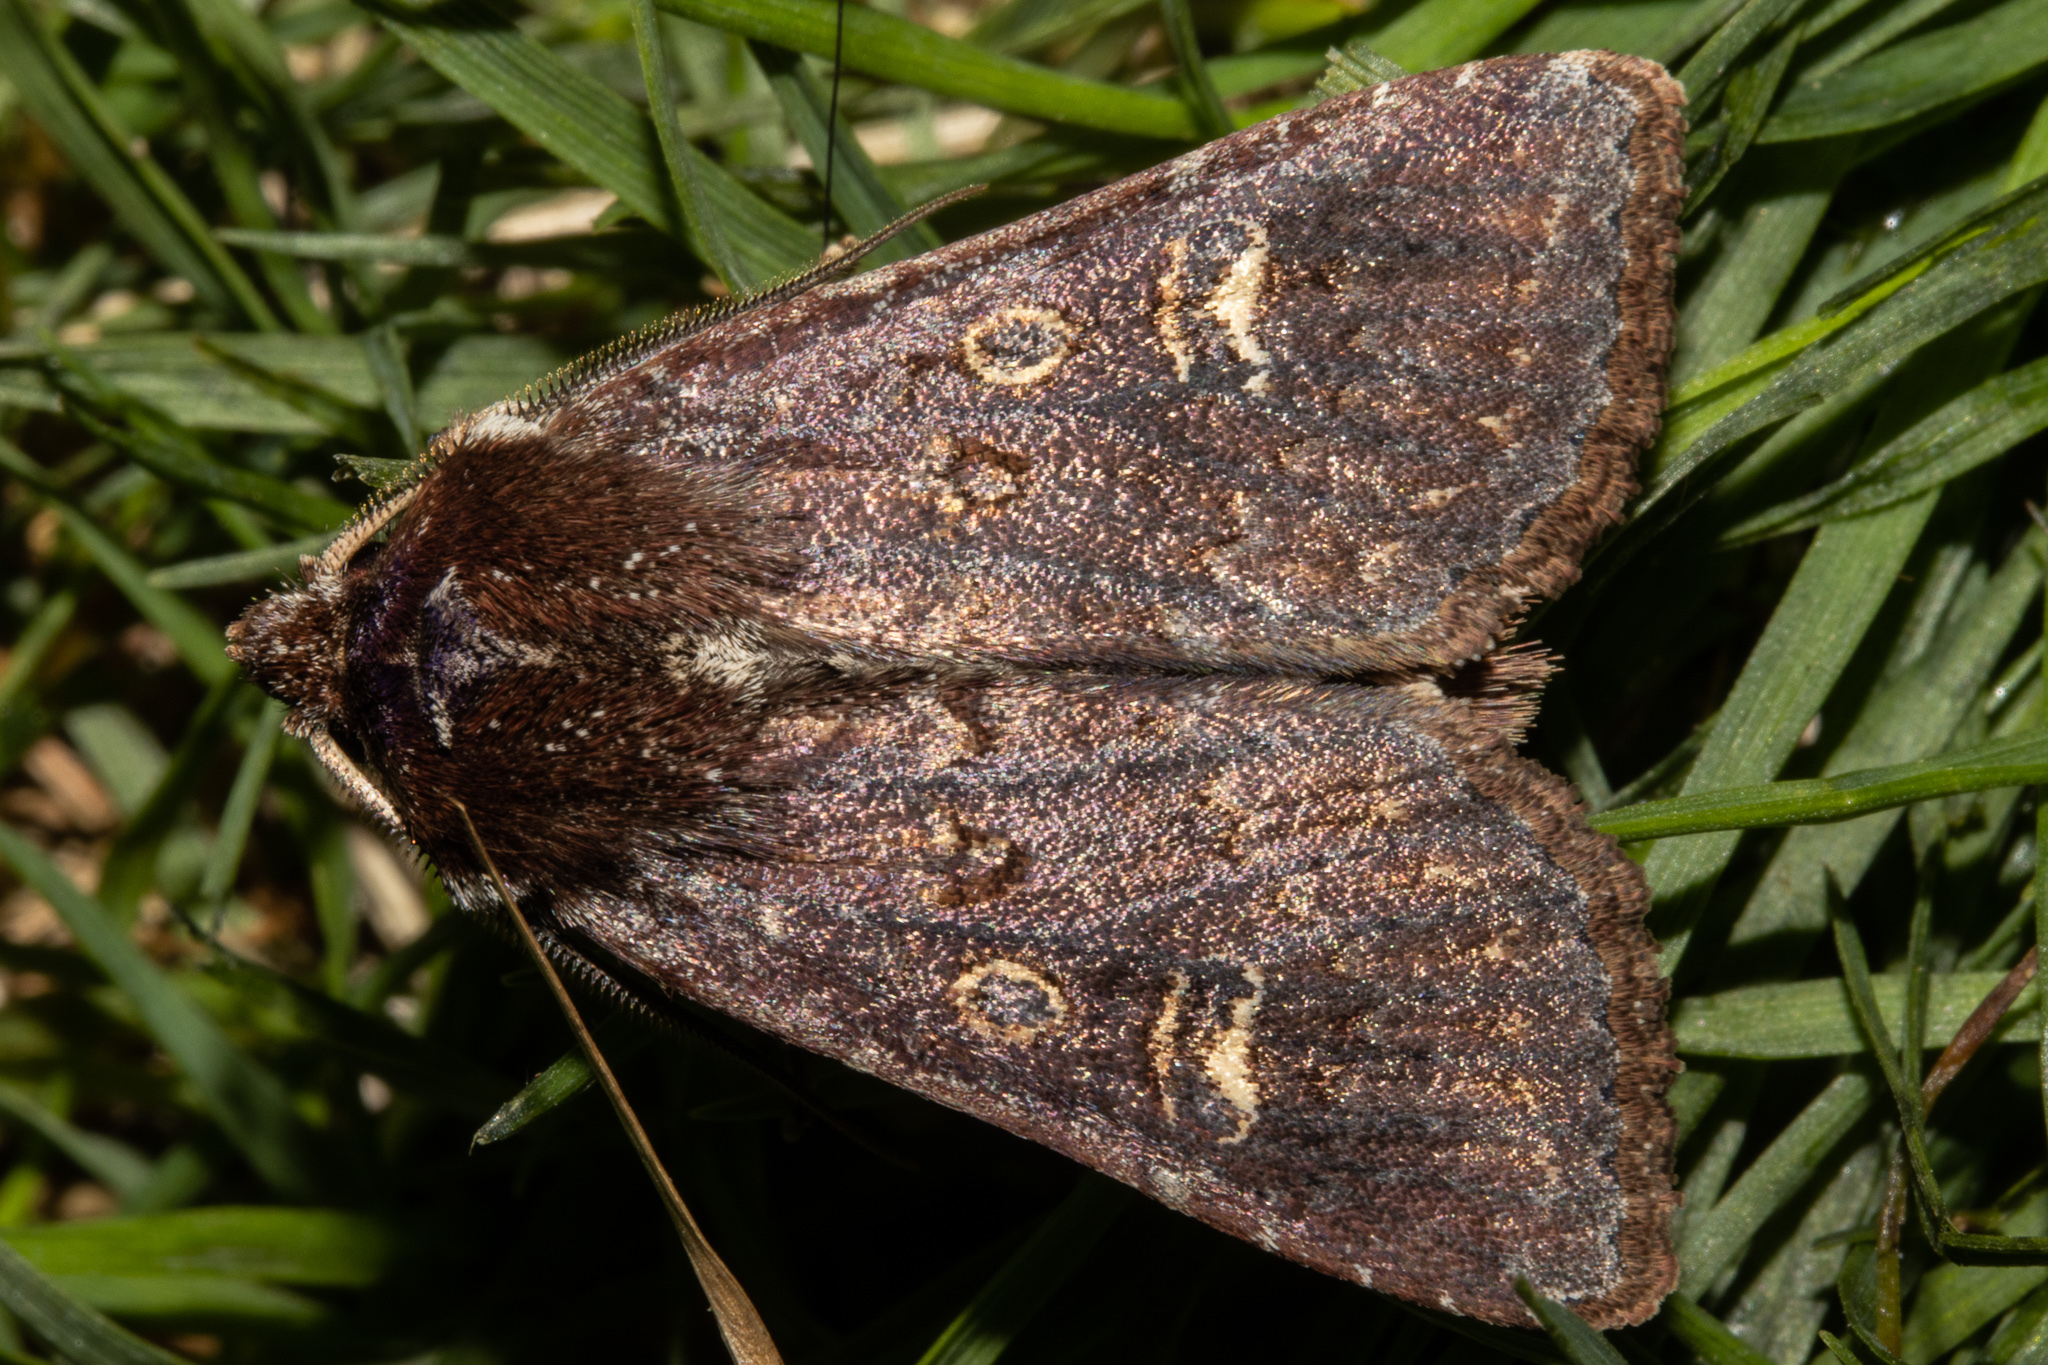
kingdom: Animalia
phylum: Arthropoda
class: Insecta
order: Lepidoptera
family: Noctuidae
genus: Ichneutica
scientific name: Ichneutica agorastis
